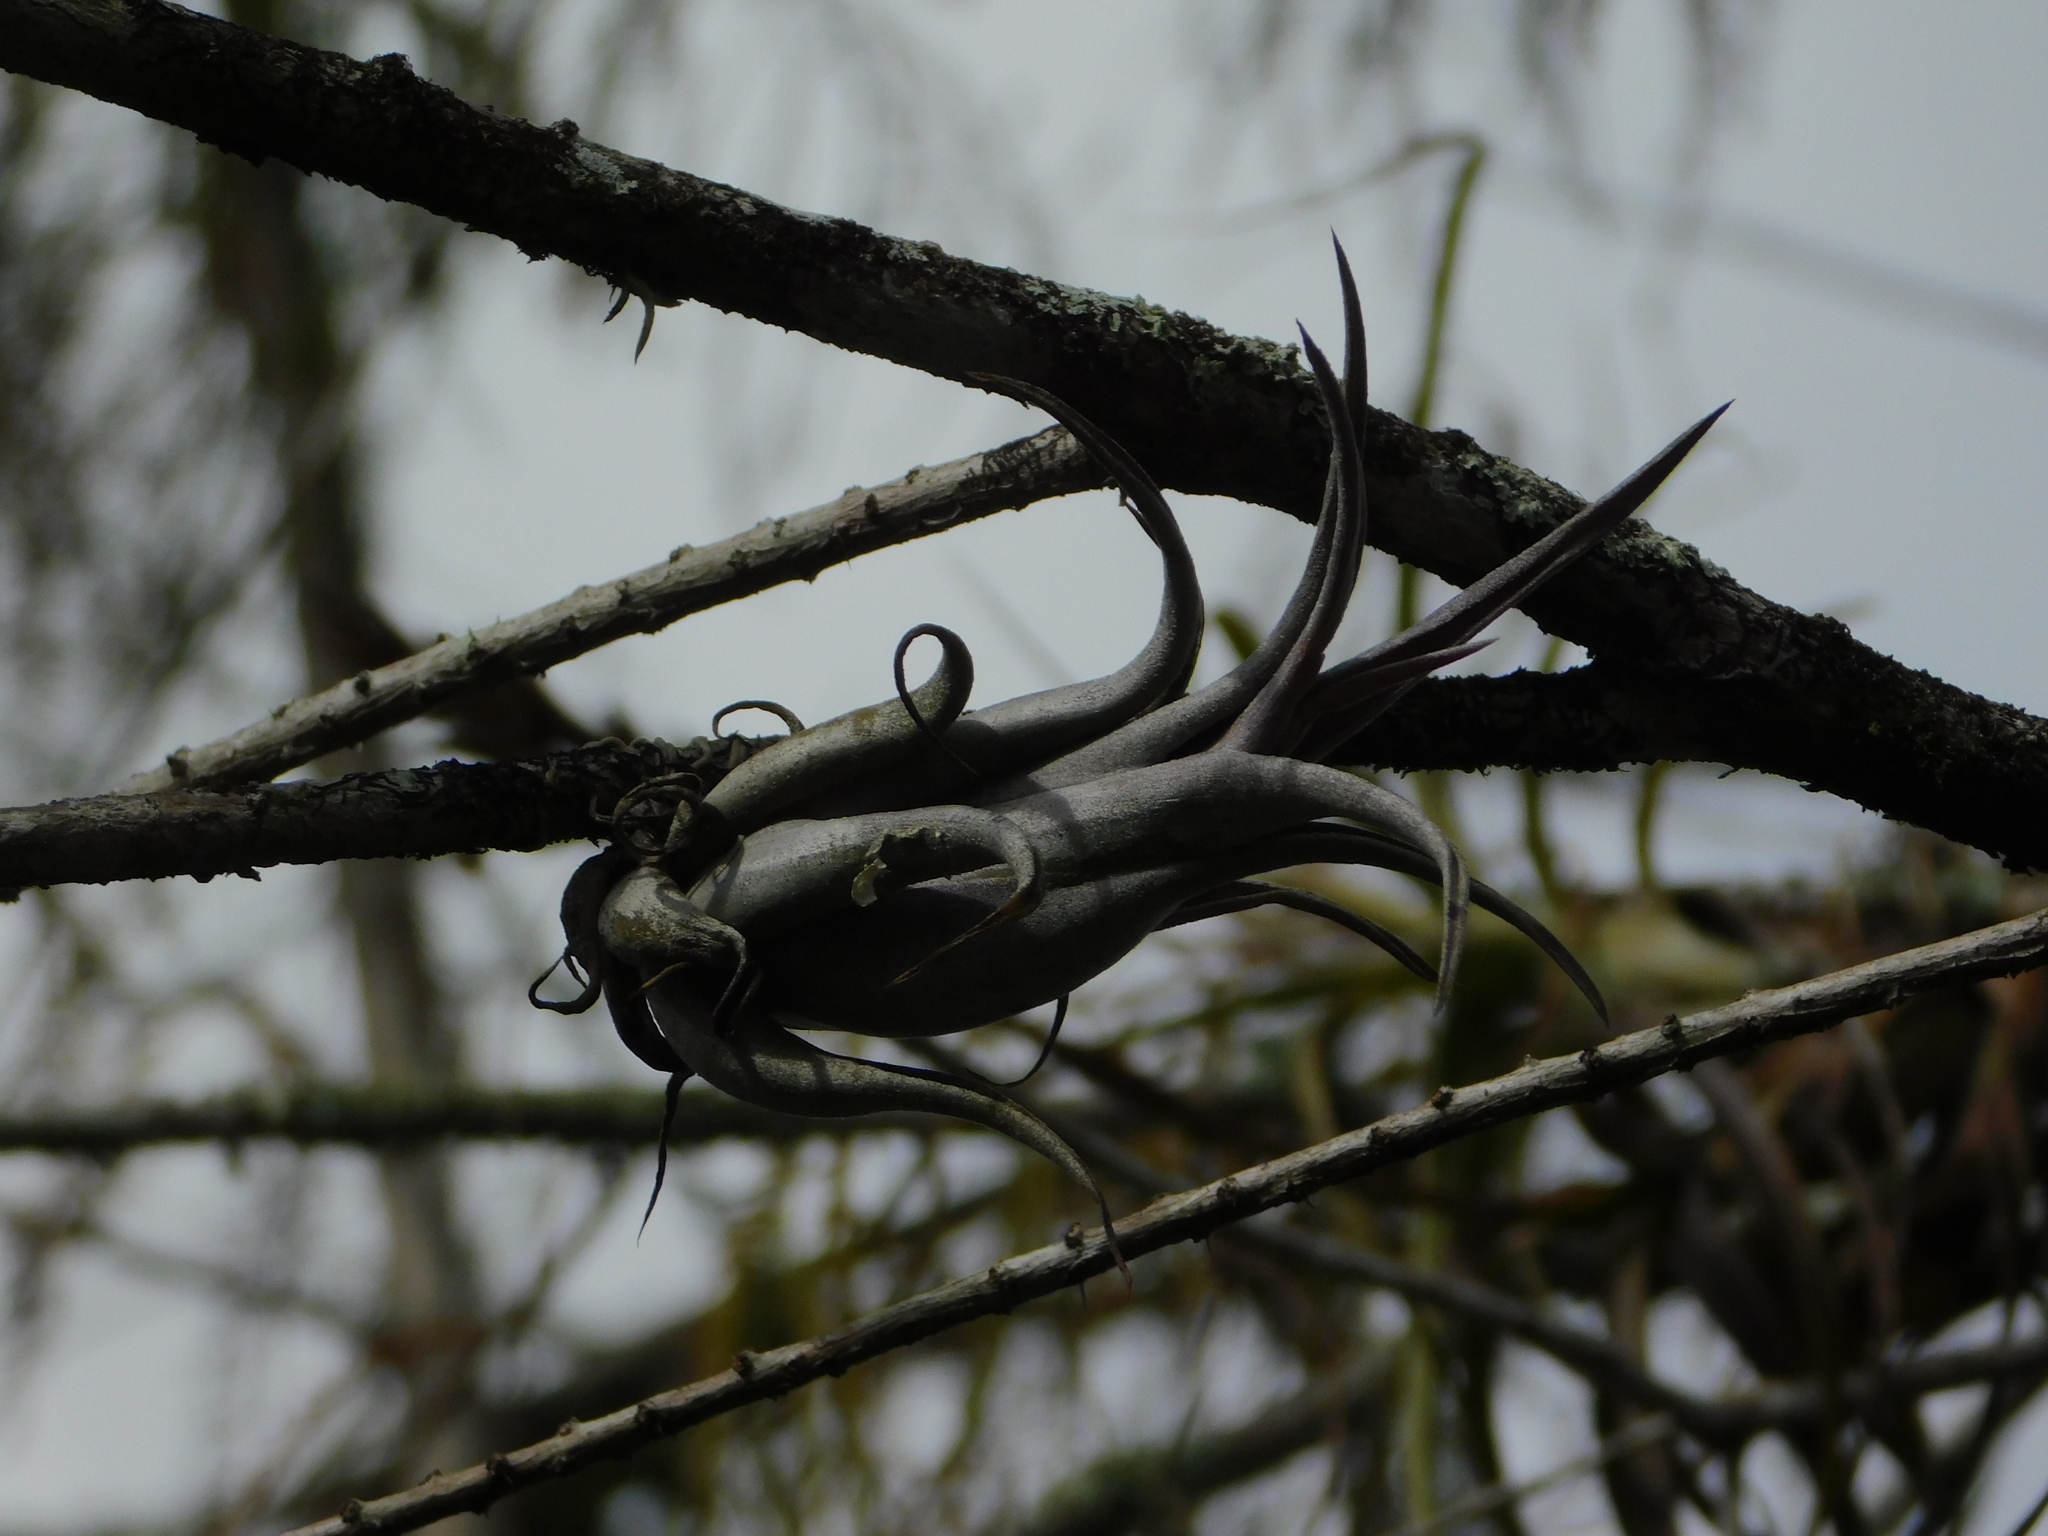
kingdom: Plantae
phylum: Tracheophyta
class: Liliopsida
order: Poales
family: Bromeliaceae
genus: Tillandsia
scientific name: Tillandsia paucifolia
